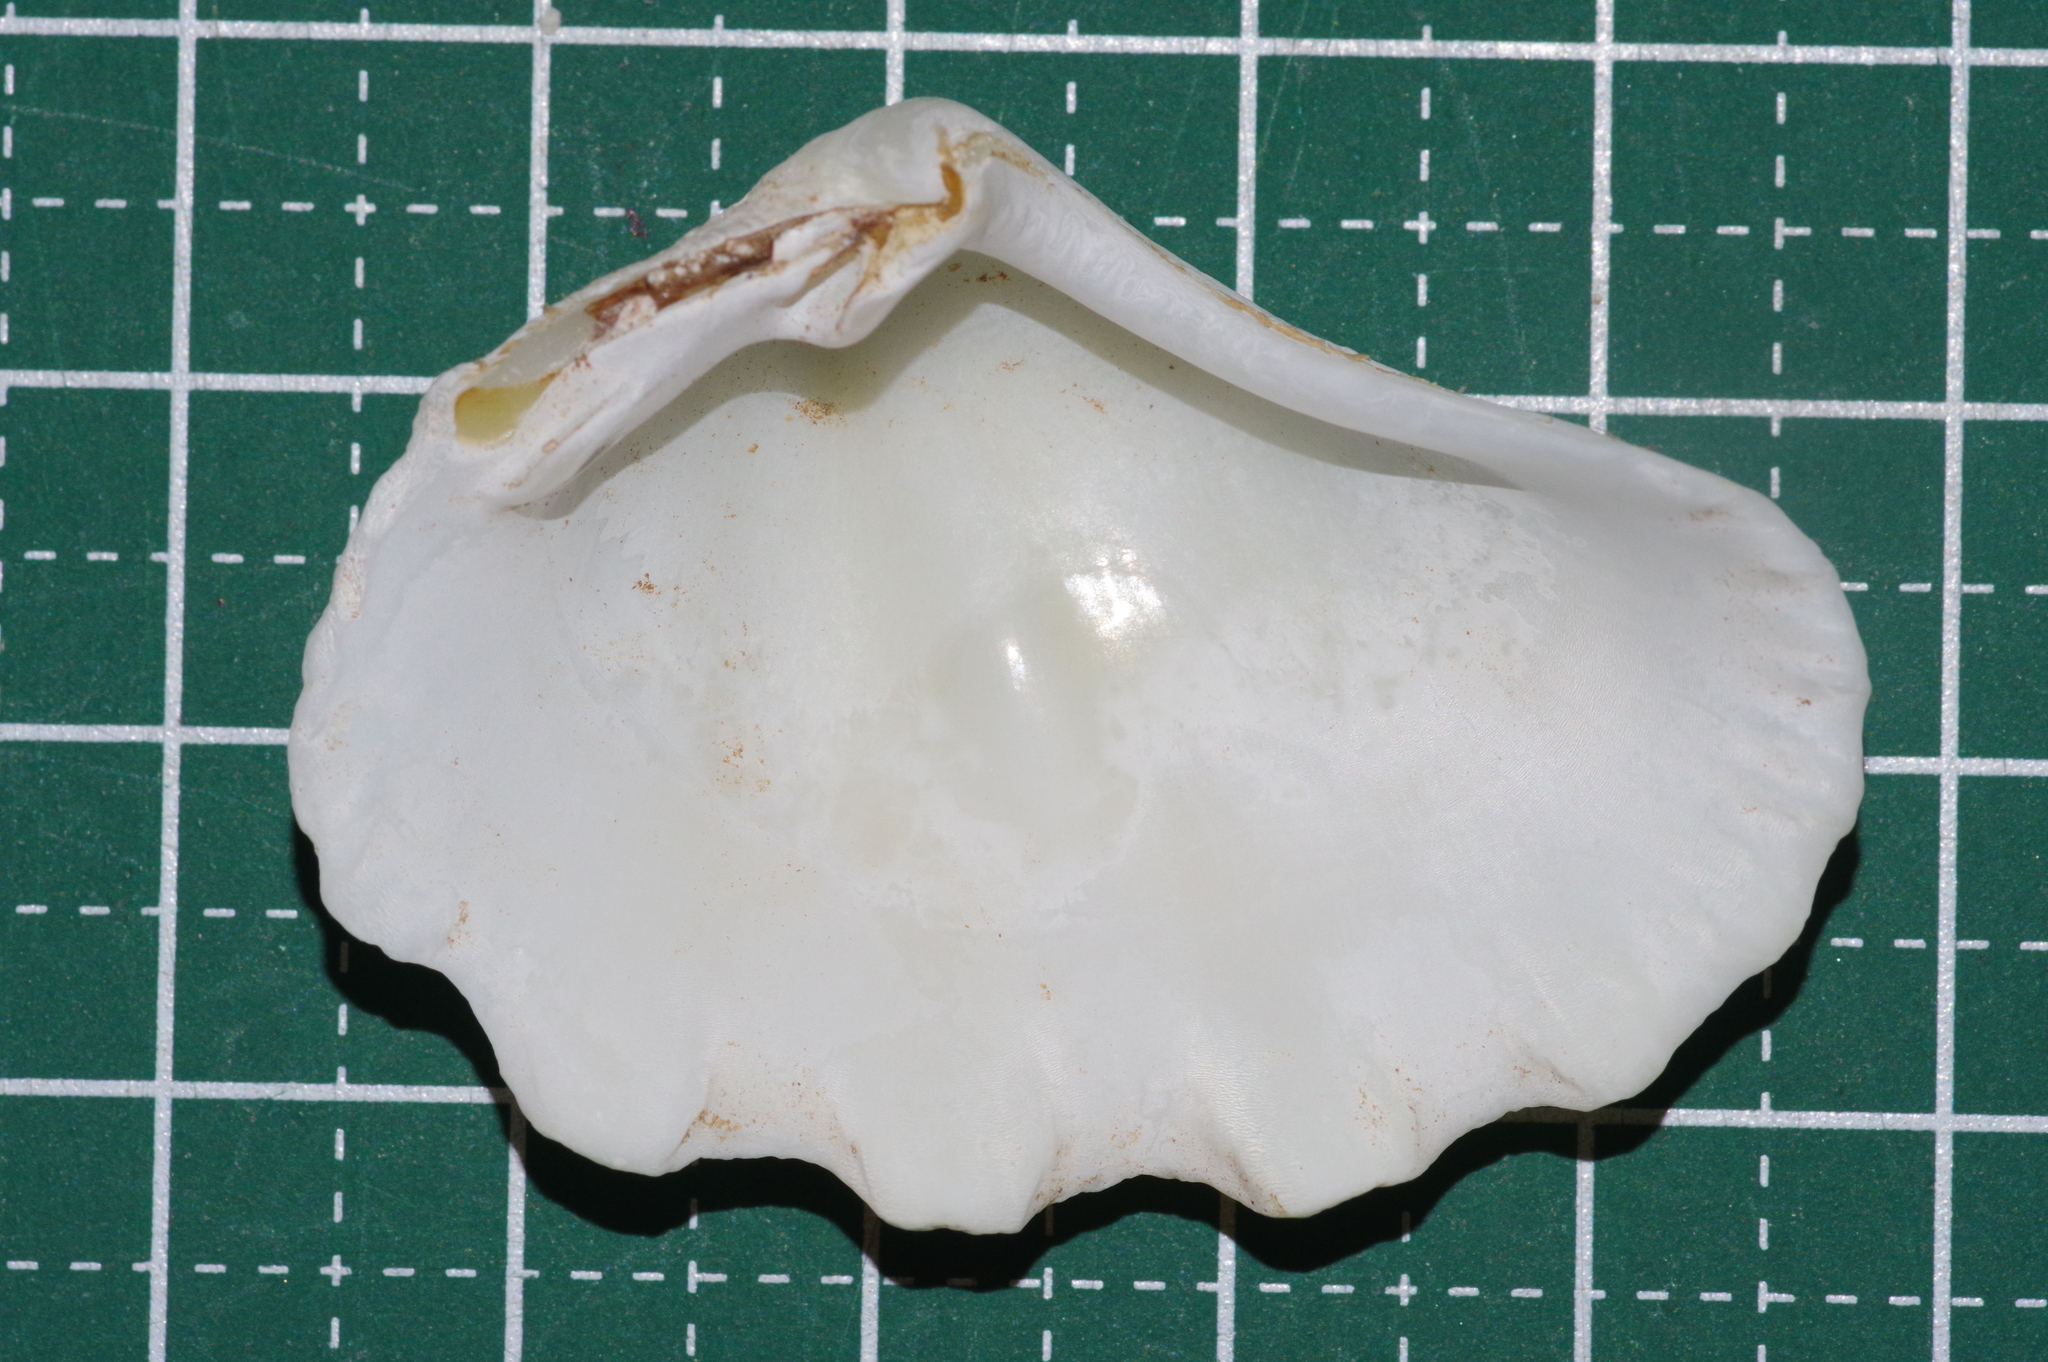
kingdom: Animalia
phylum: Mollusca
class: Bivalvia
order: Cardiida
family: Cardiidae
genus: Tridacna
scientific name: Tridacna crocea
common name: Boring clam
